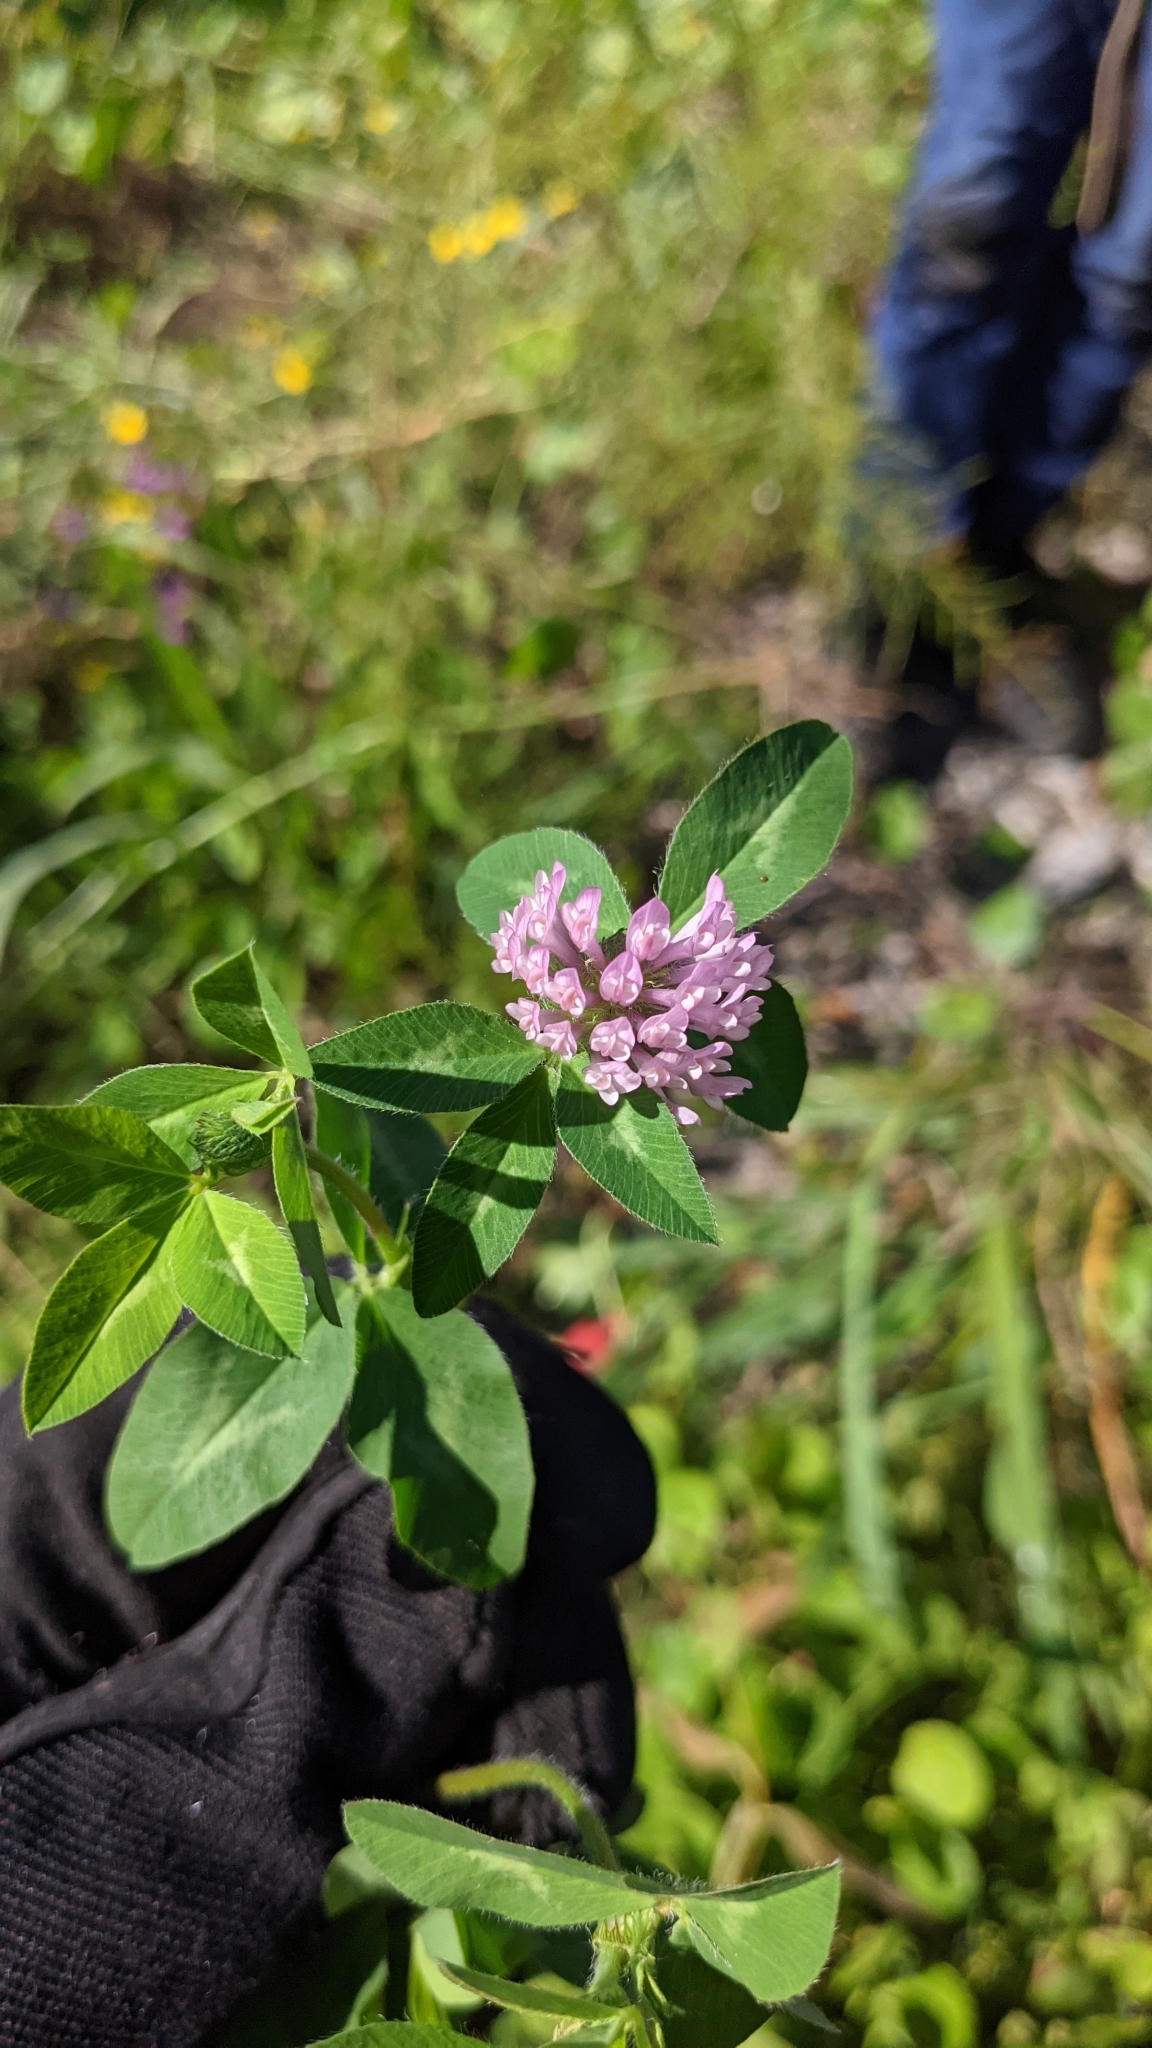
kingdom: Plantae
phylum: Tracheophyta
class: Magnoliopsida
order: Fabales
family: Fabaceae
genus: Trifolium
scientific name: Trifolium pratense
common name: Red clover
